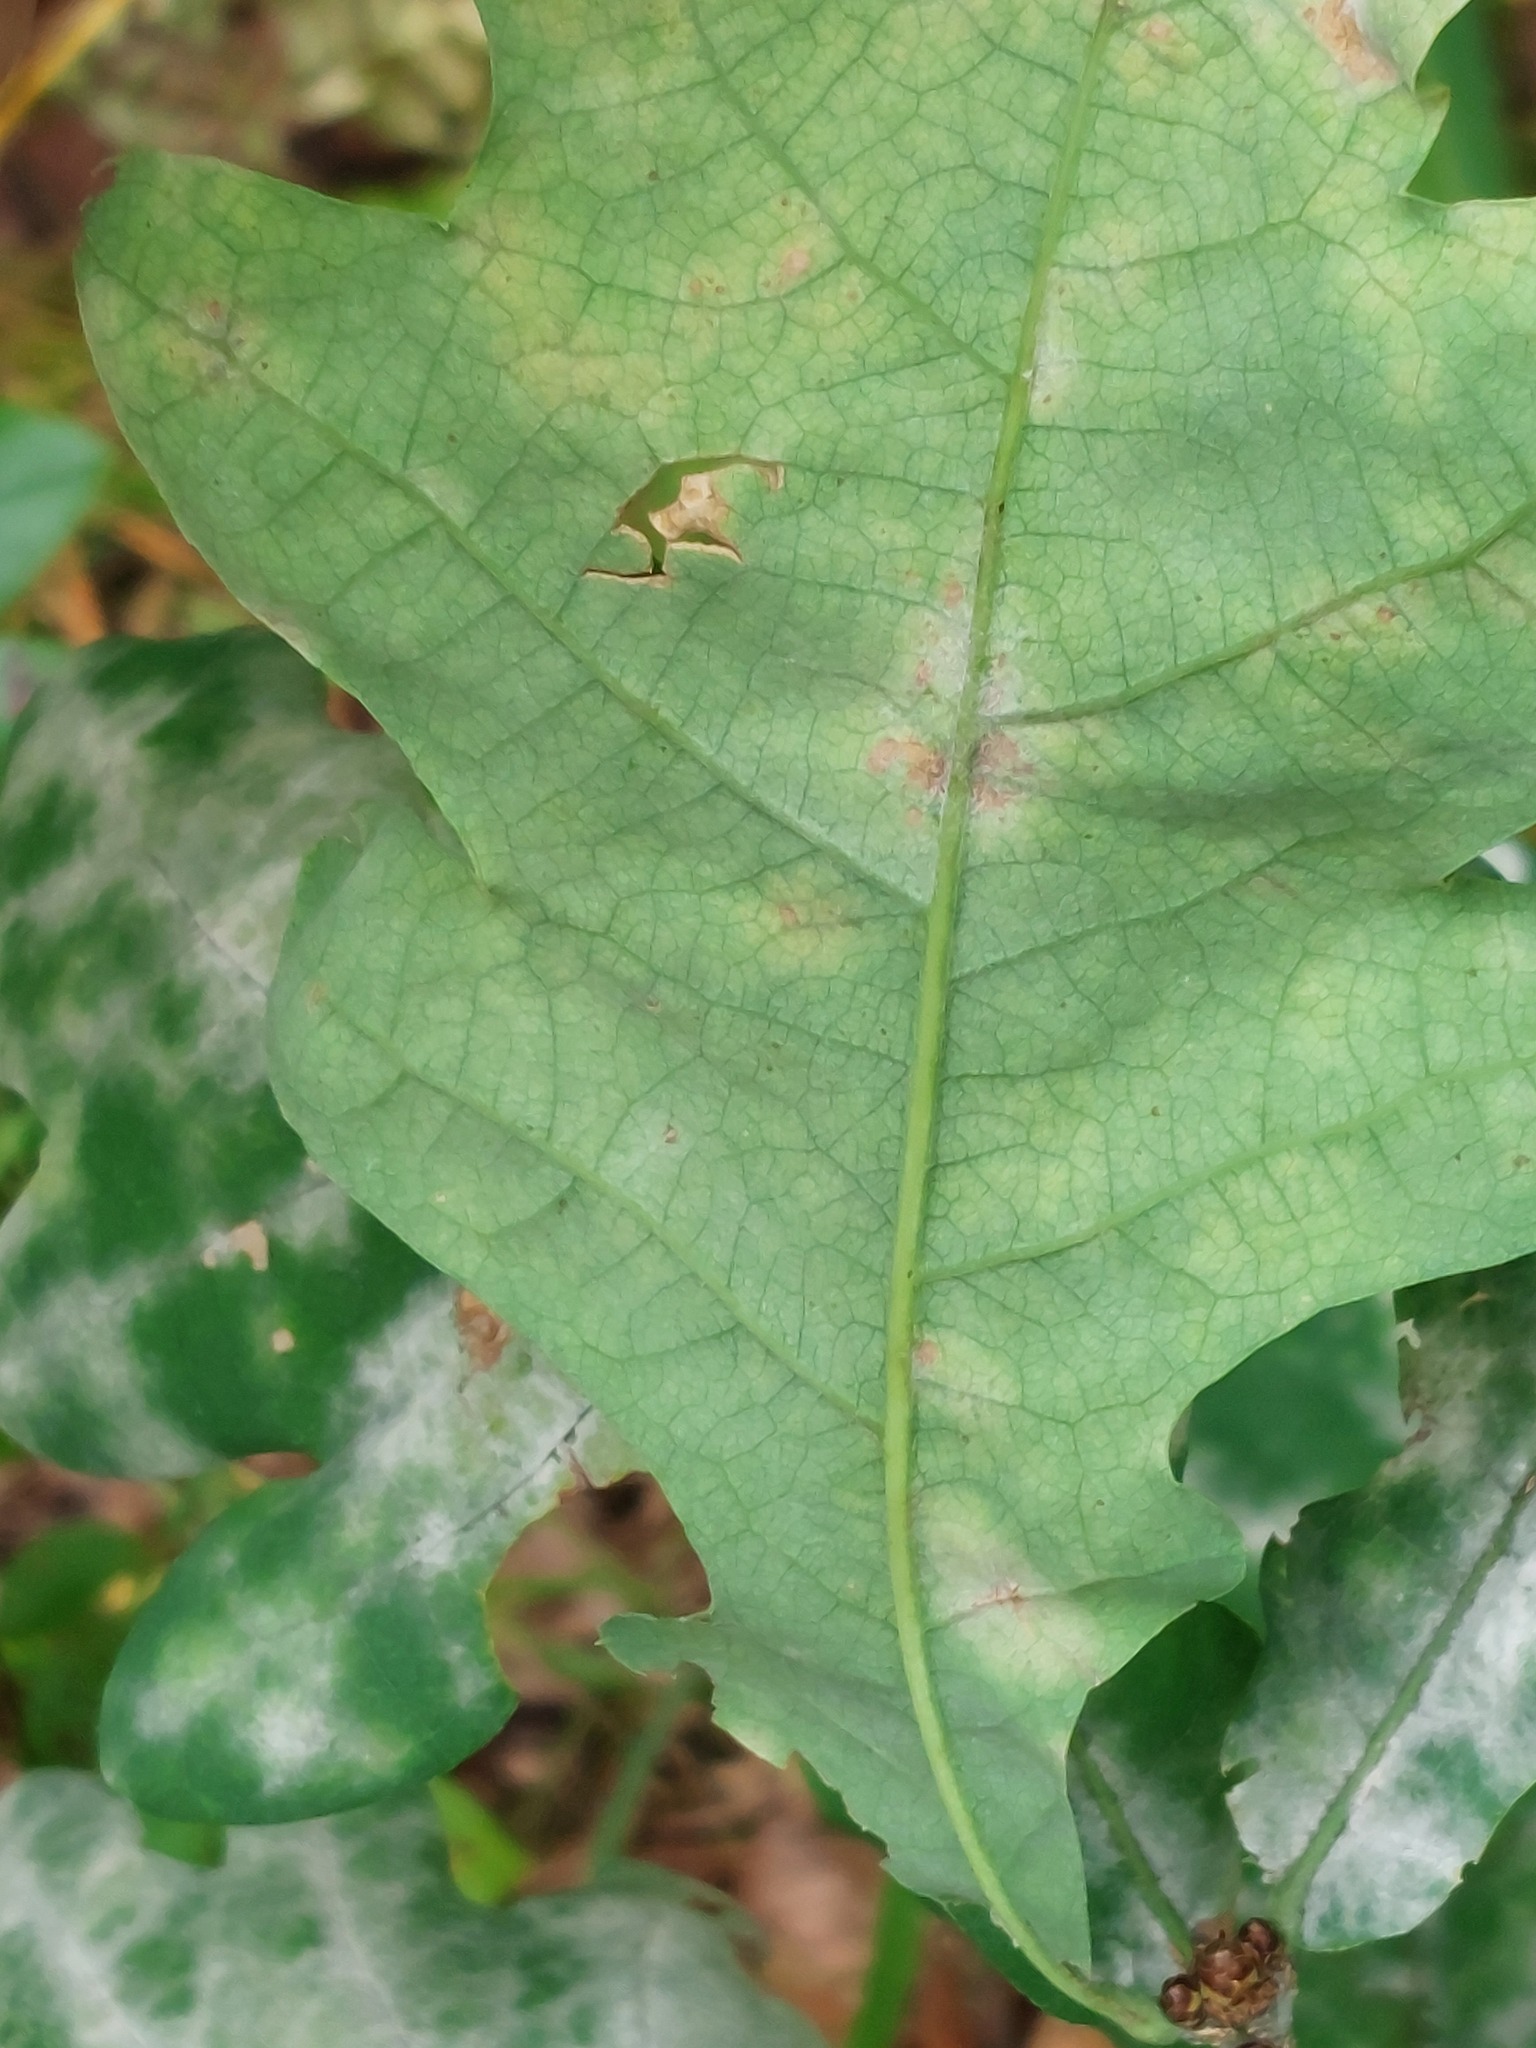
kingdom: Fungi
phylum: Ascomycota
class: Leotiomycetes
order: Helotiales
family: Erysiphaceae
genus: Erysiphe
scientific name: Erysiphe alphitoides
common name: Oak mildew
